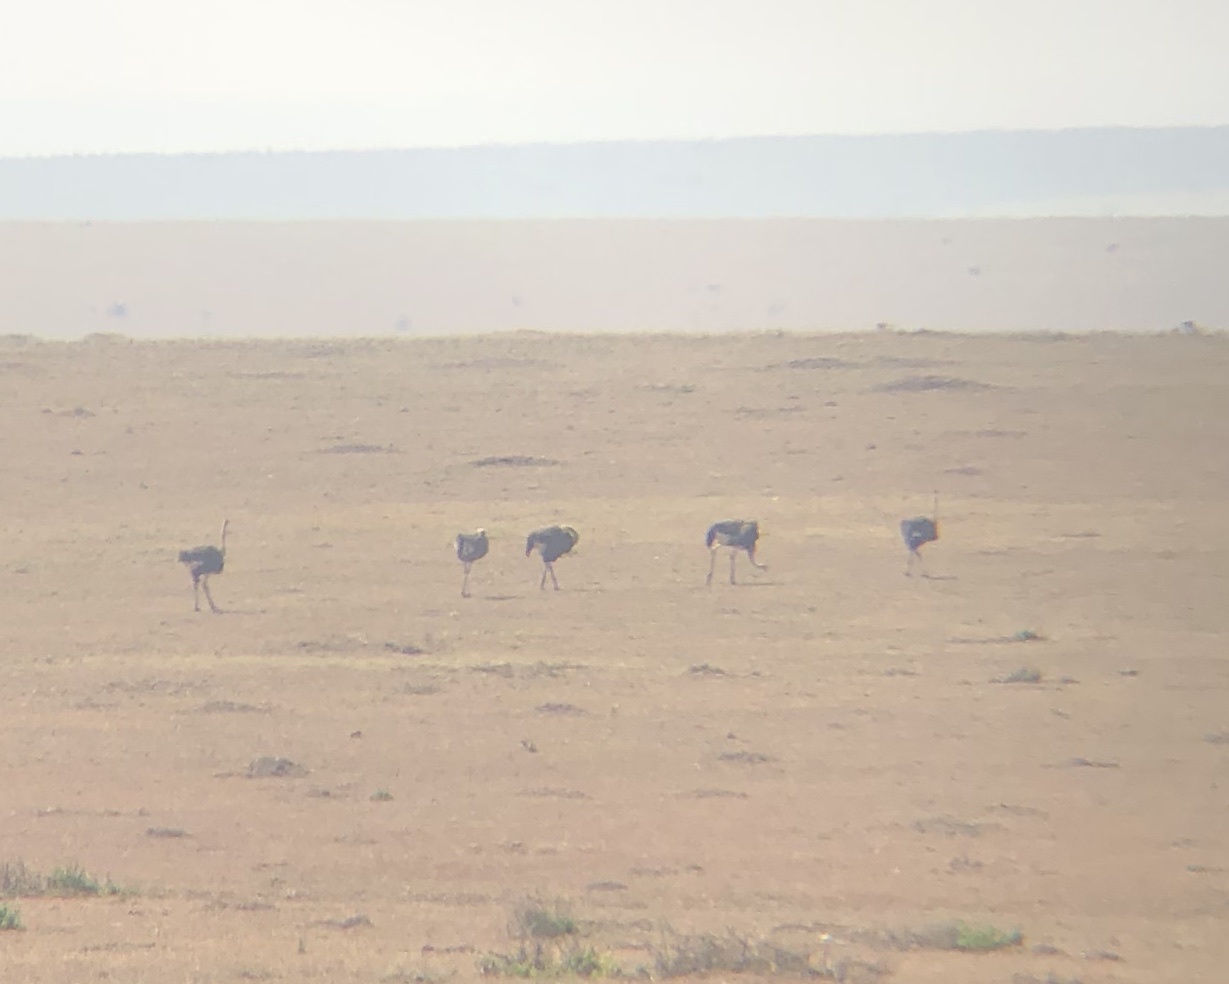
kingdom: Animalia
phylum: Chordata
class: Aves
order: Struthioniformes
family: Struthionidae
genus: Struthio
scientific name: Struthio camelus
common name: Common ostrich
